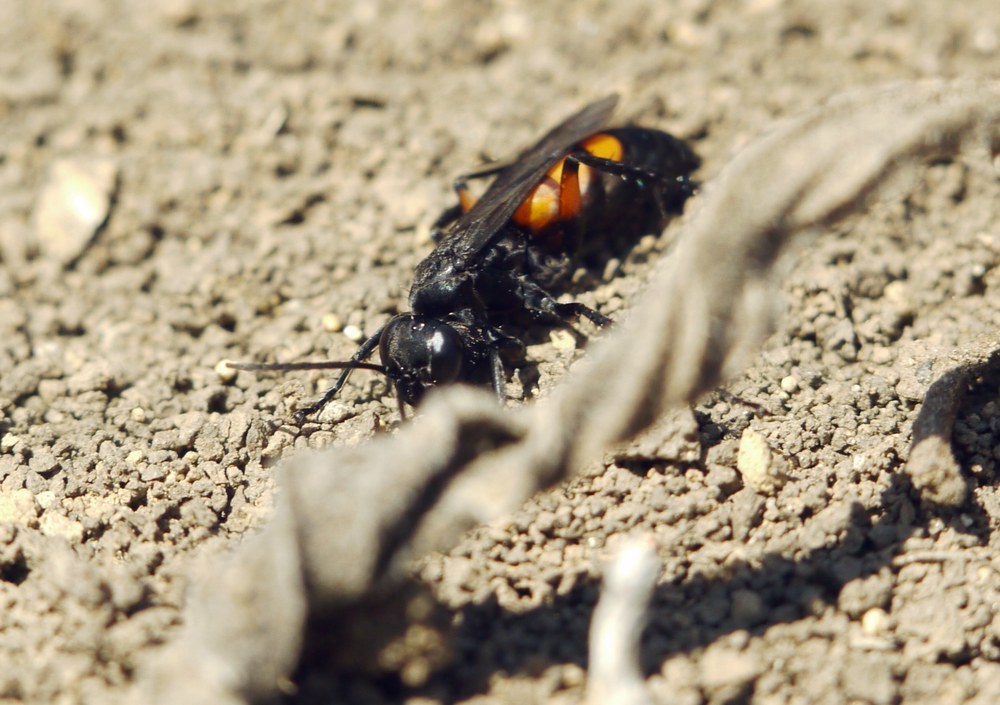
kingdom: Animalia
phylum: Arthropoda
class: Insecta
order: Hymenoptera
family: Pompilidae
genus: Anoplius
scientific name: Anoplius viaticus
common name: Black banded spider wasp
